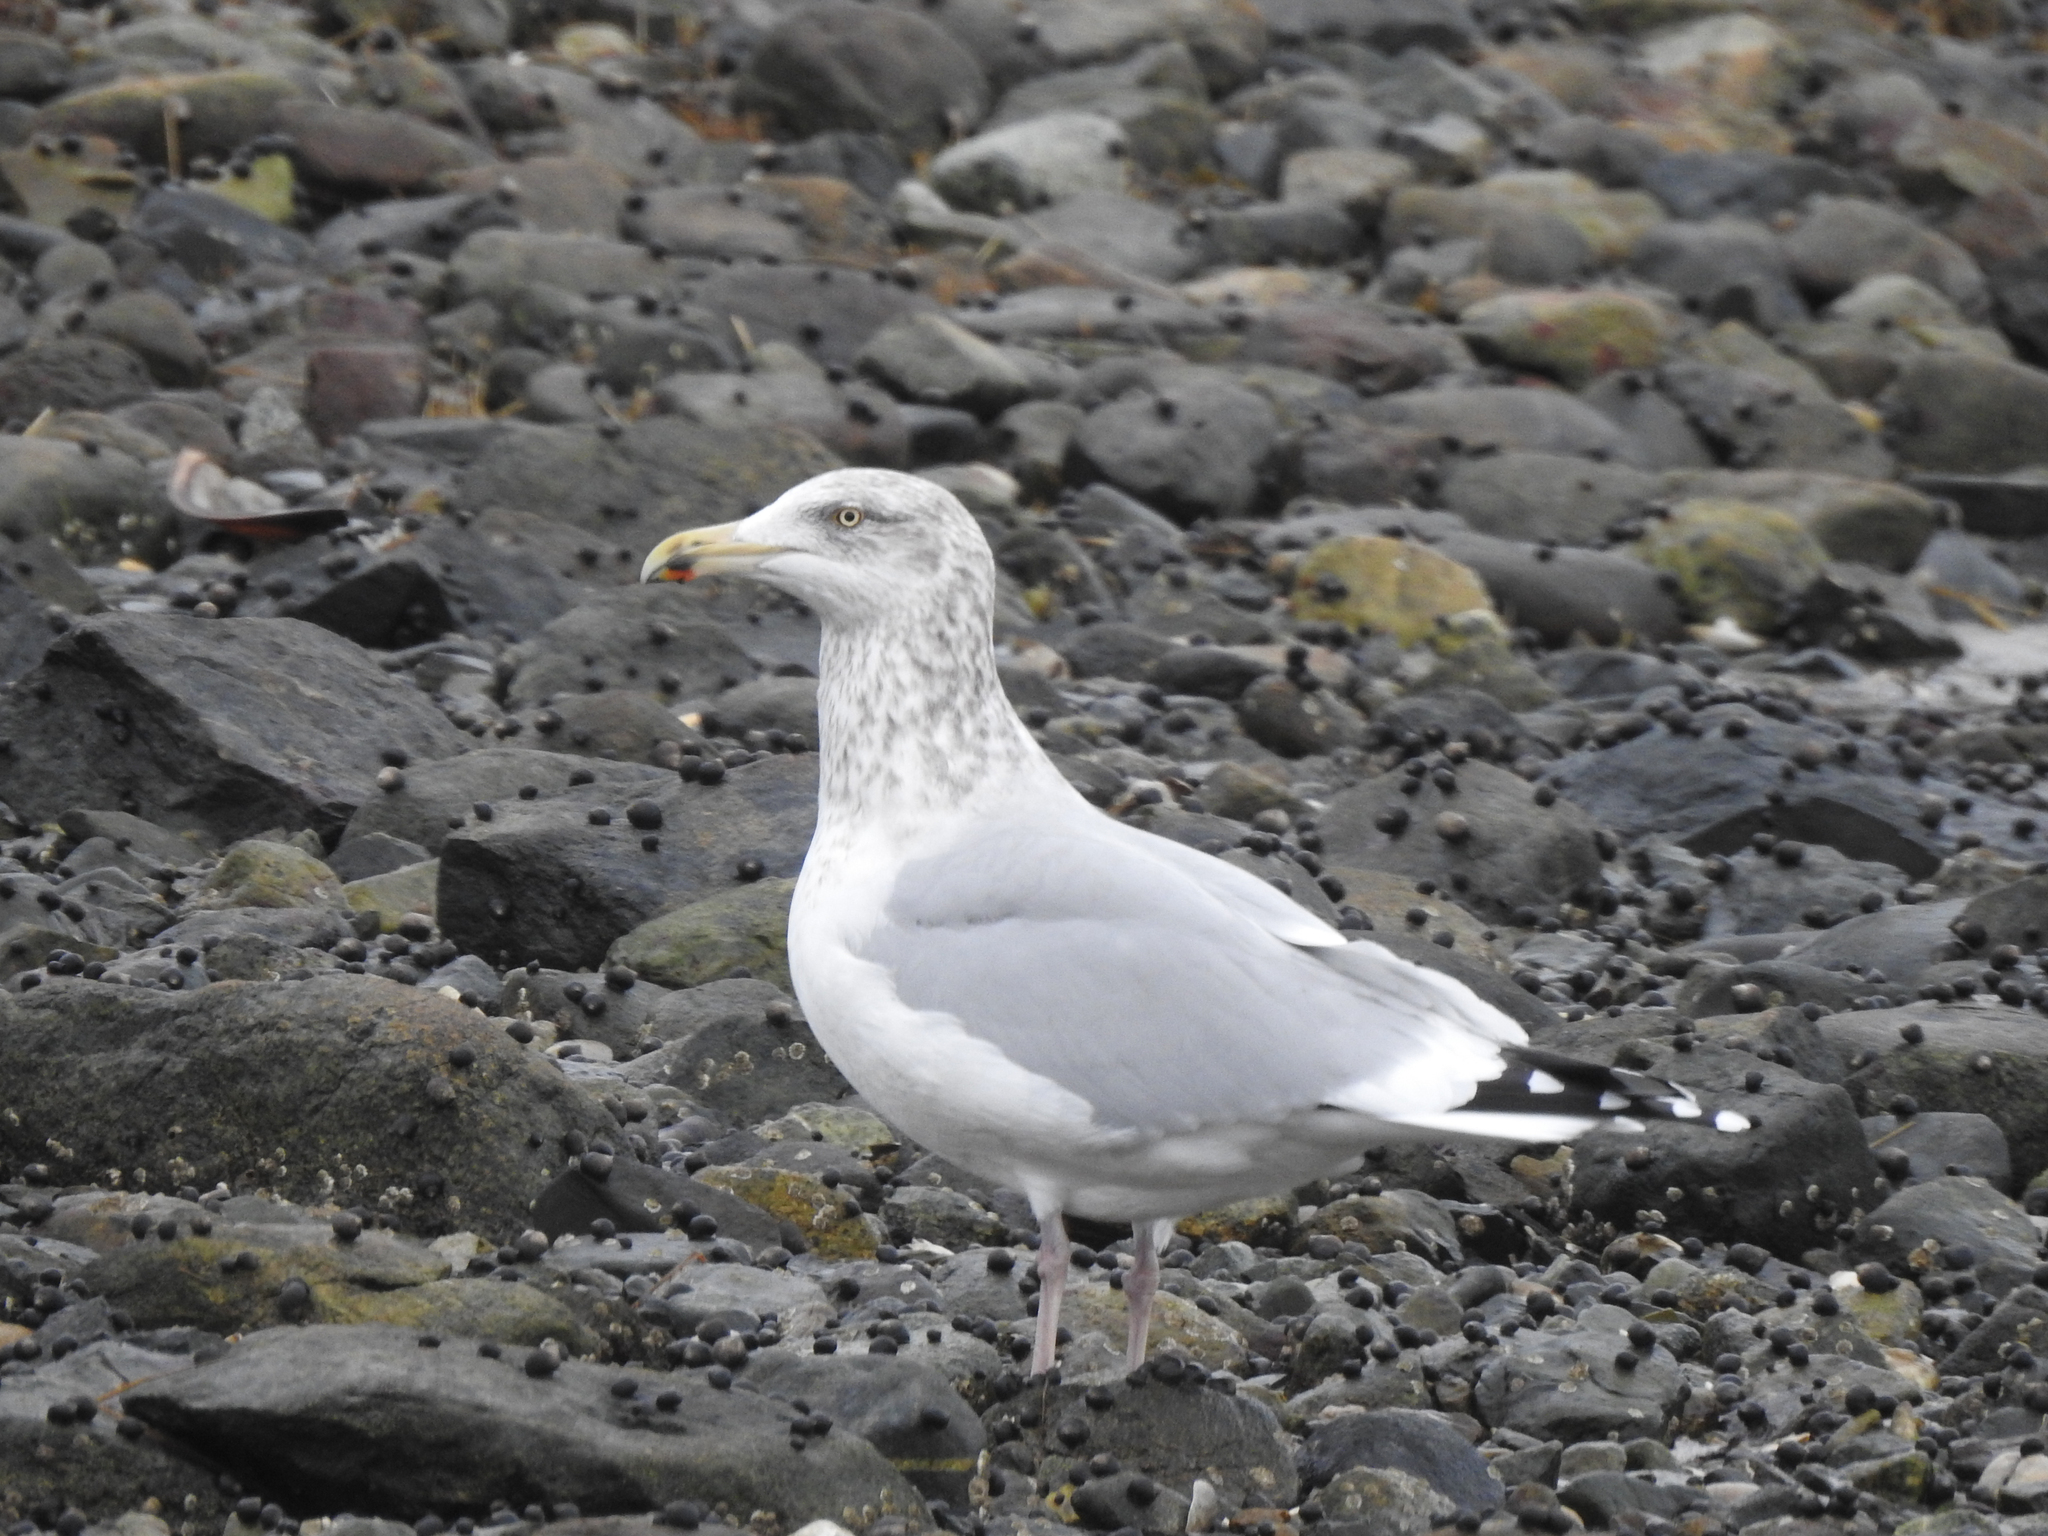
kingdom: Animalia
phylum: Chordata
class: Aves
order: Charadriiformes
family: Laridae
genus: Larus
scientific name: Larus argentatus
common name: Herring gull
